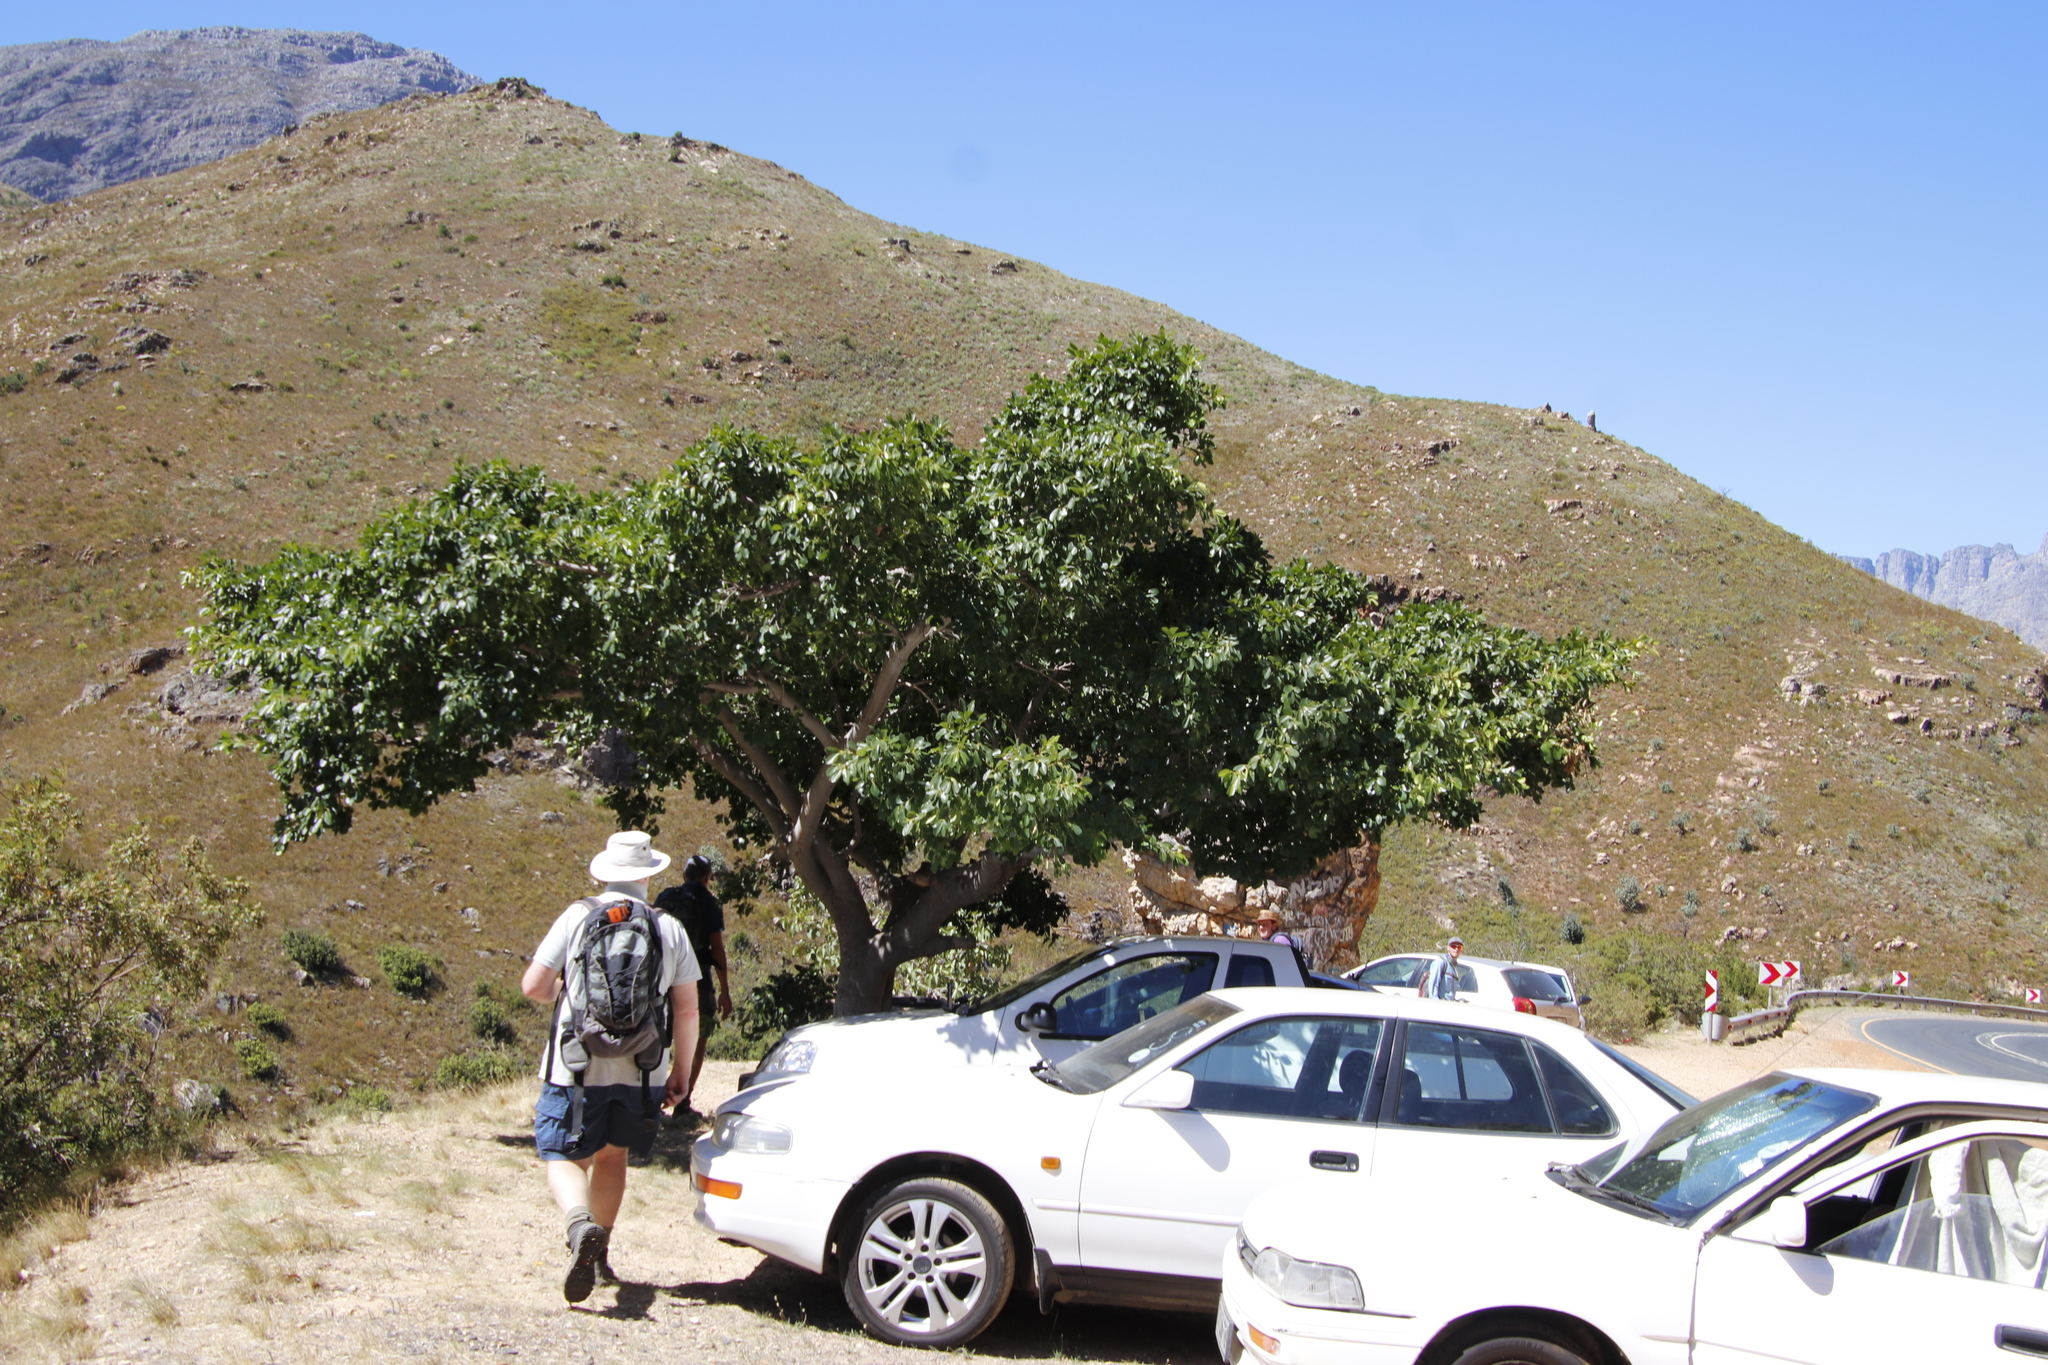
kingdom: Plantae
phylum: Tracheophyta
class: Magnoliopsida
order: Rosales
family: Moraceae
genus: Ficus
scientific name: Ficus thonningii
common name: Fig
